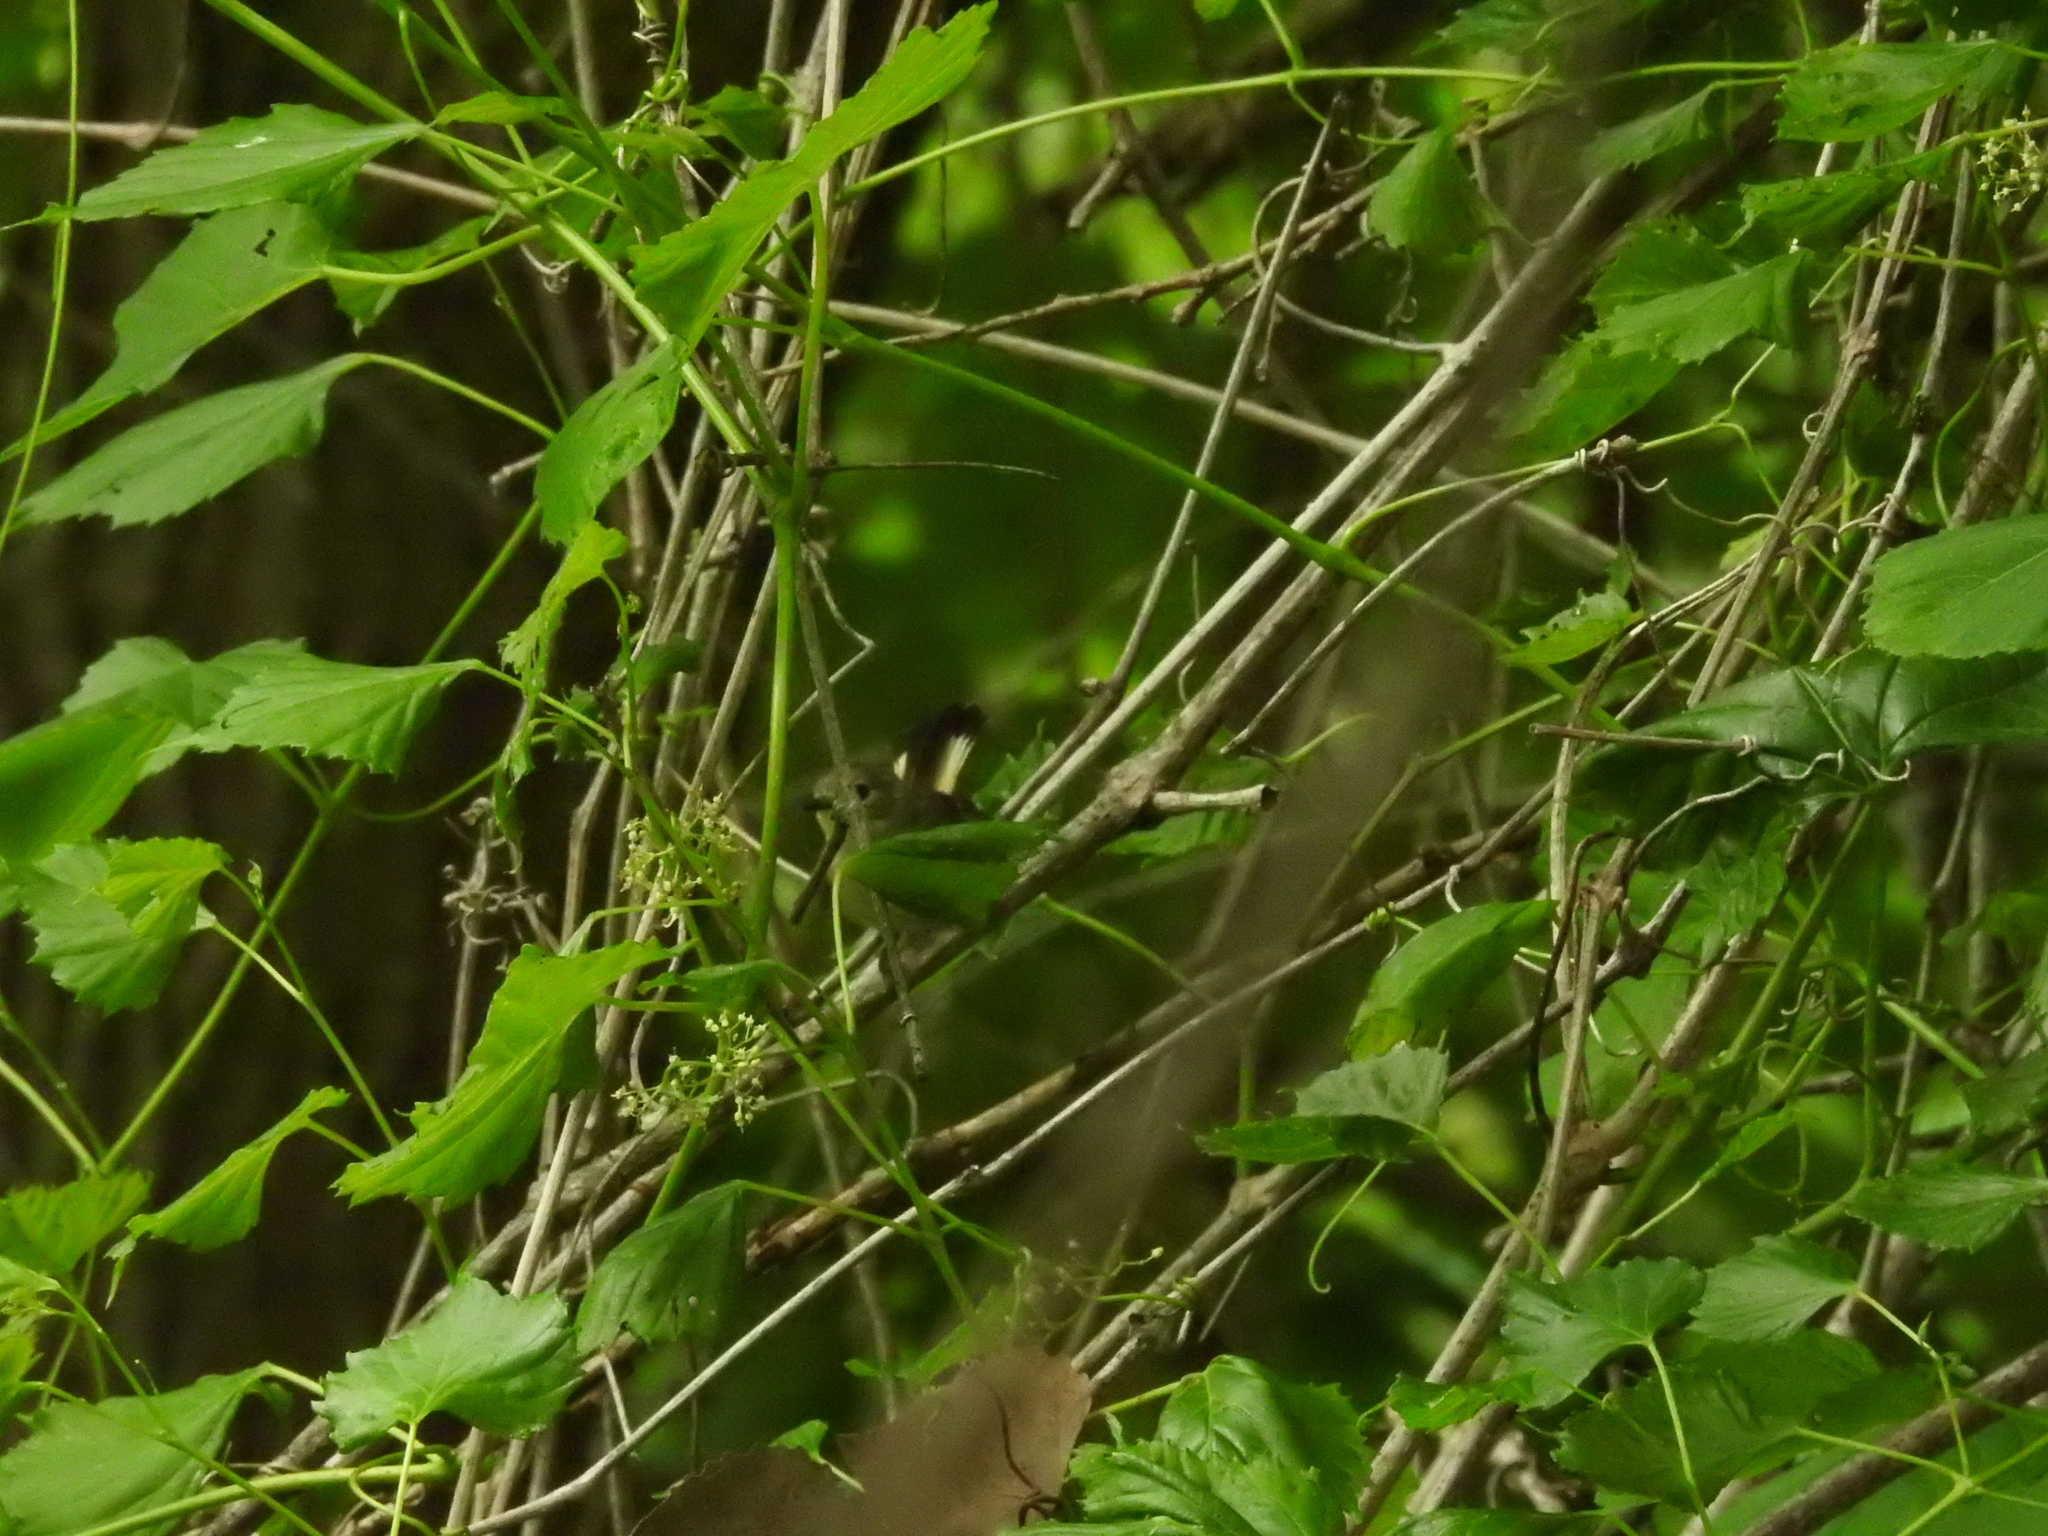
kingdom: Animalia
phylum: Chordata
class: Aves
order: Passeriformes
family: Parulidae
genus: Setophaga
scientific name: Setophaga ruticilla
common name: American redstart
